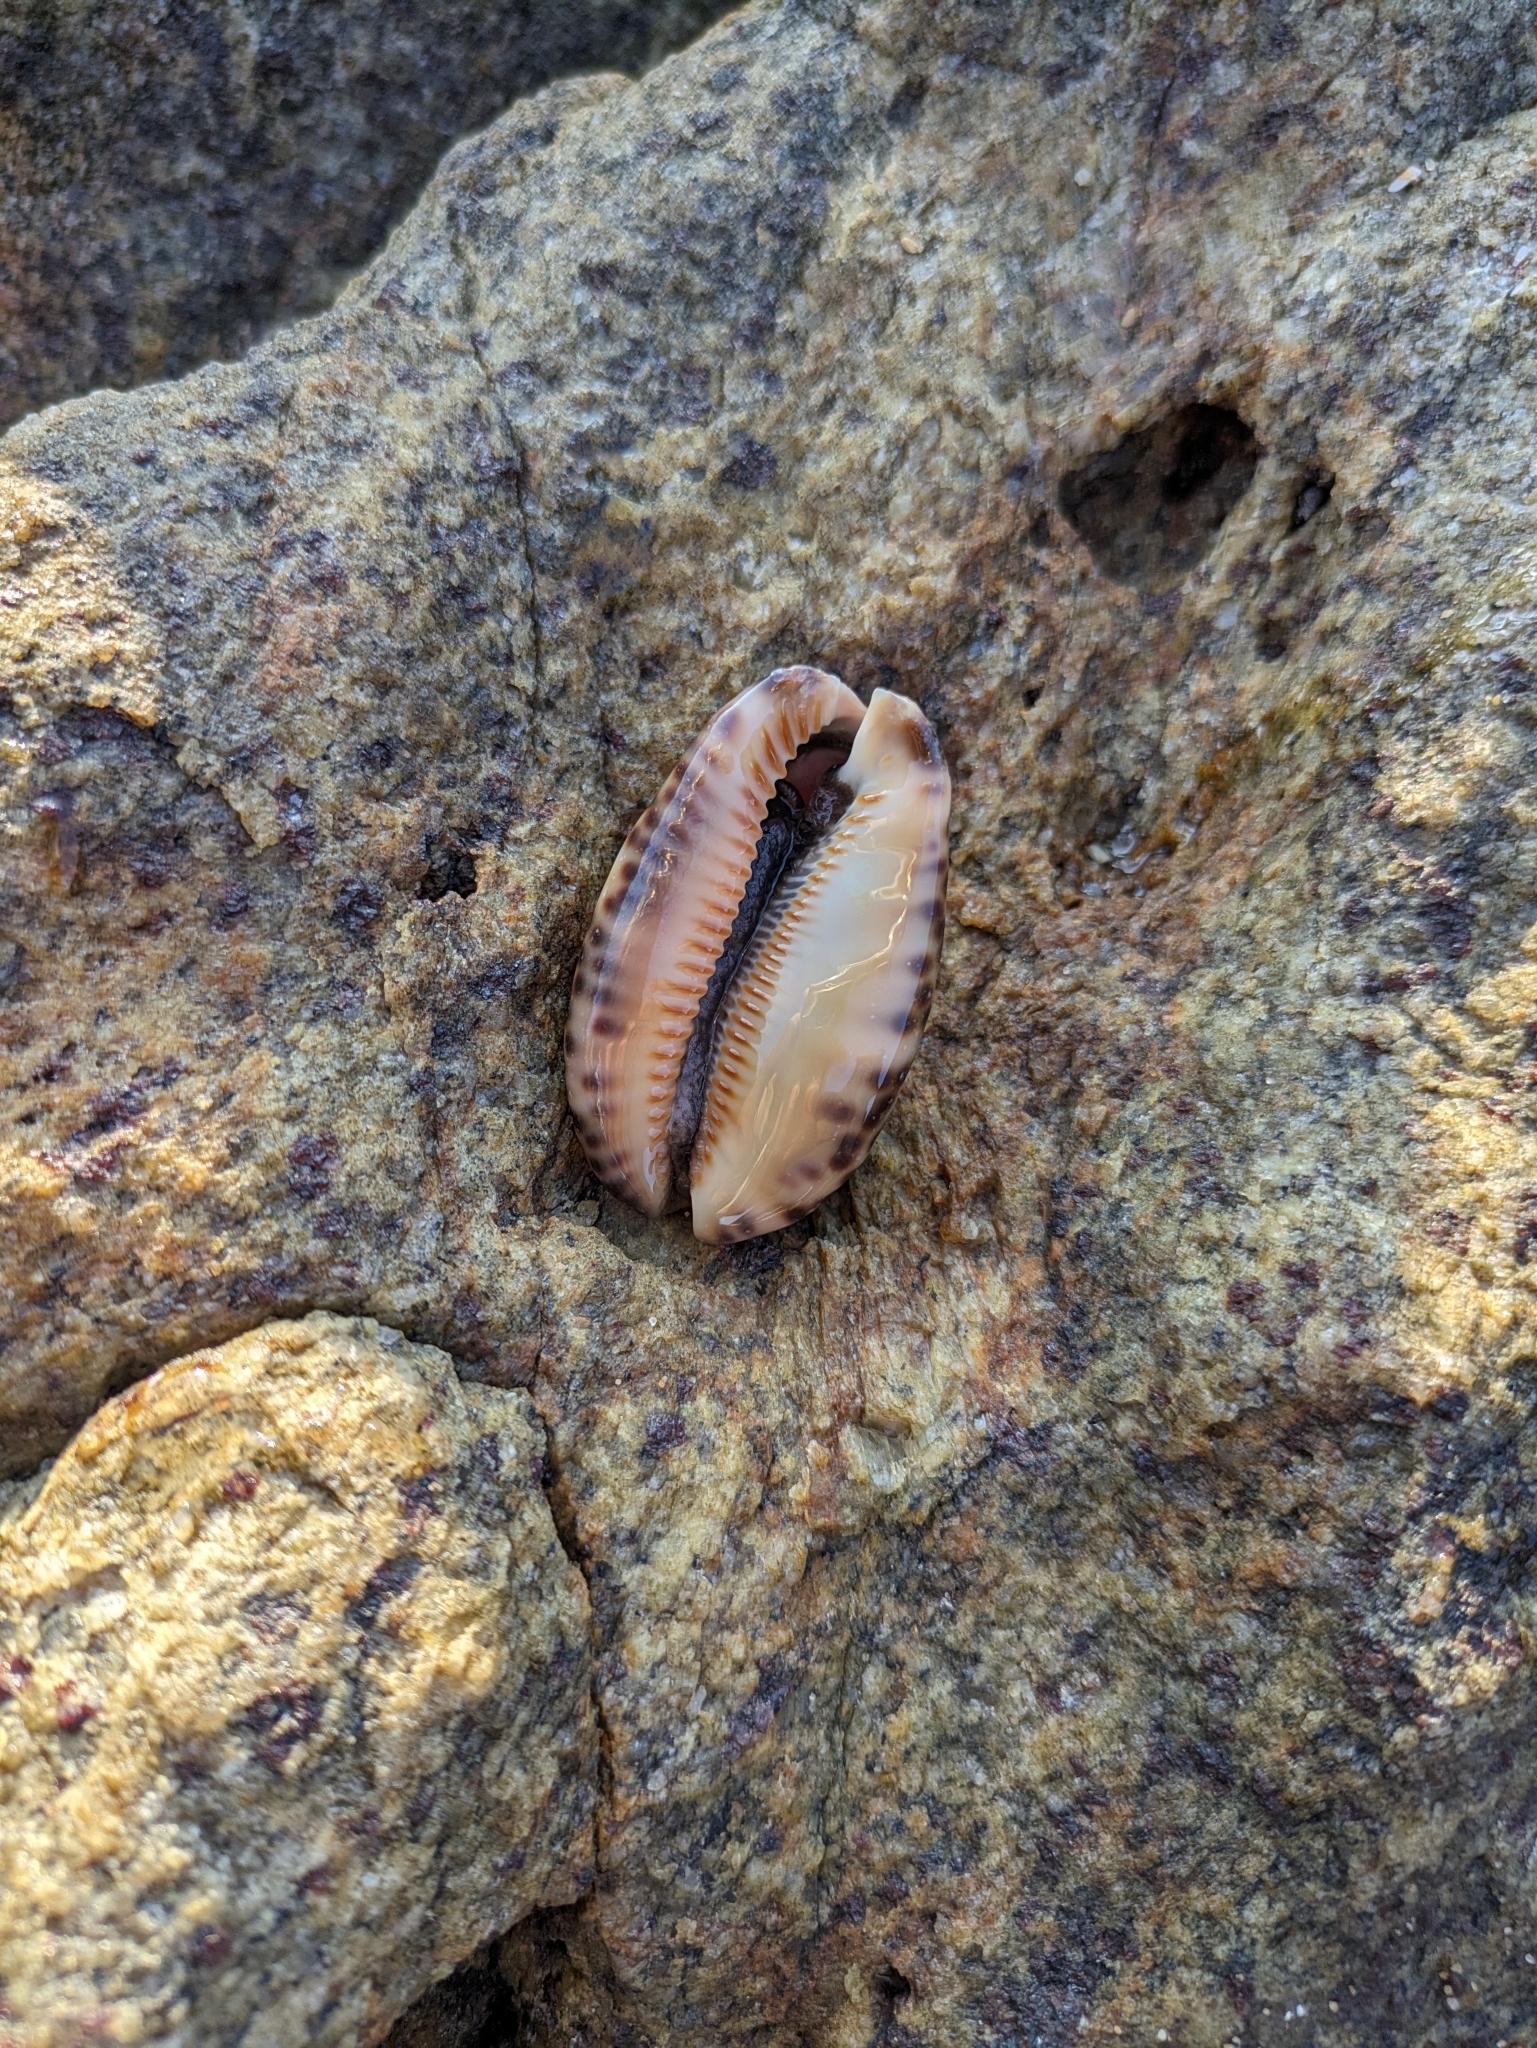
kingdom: Animalia
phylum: Mollusca
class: Gastropoda
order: Littorinimorpha
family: Cypraeidae
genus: Mauritia
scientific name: Mauritia arabica
